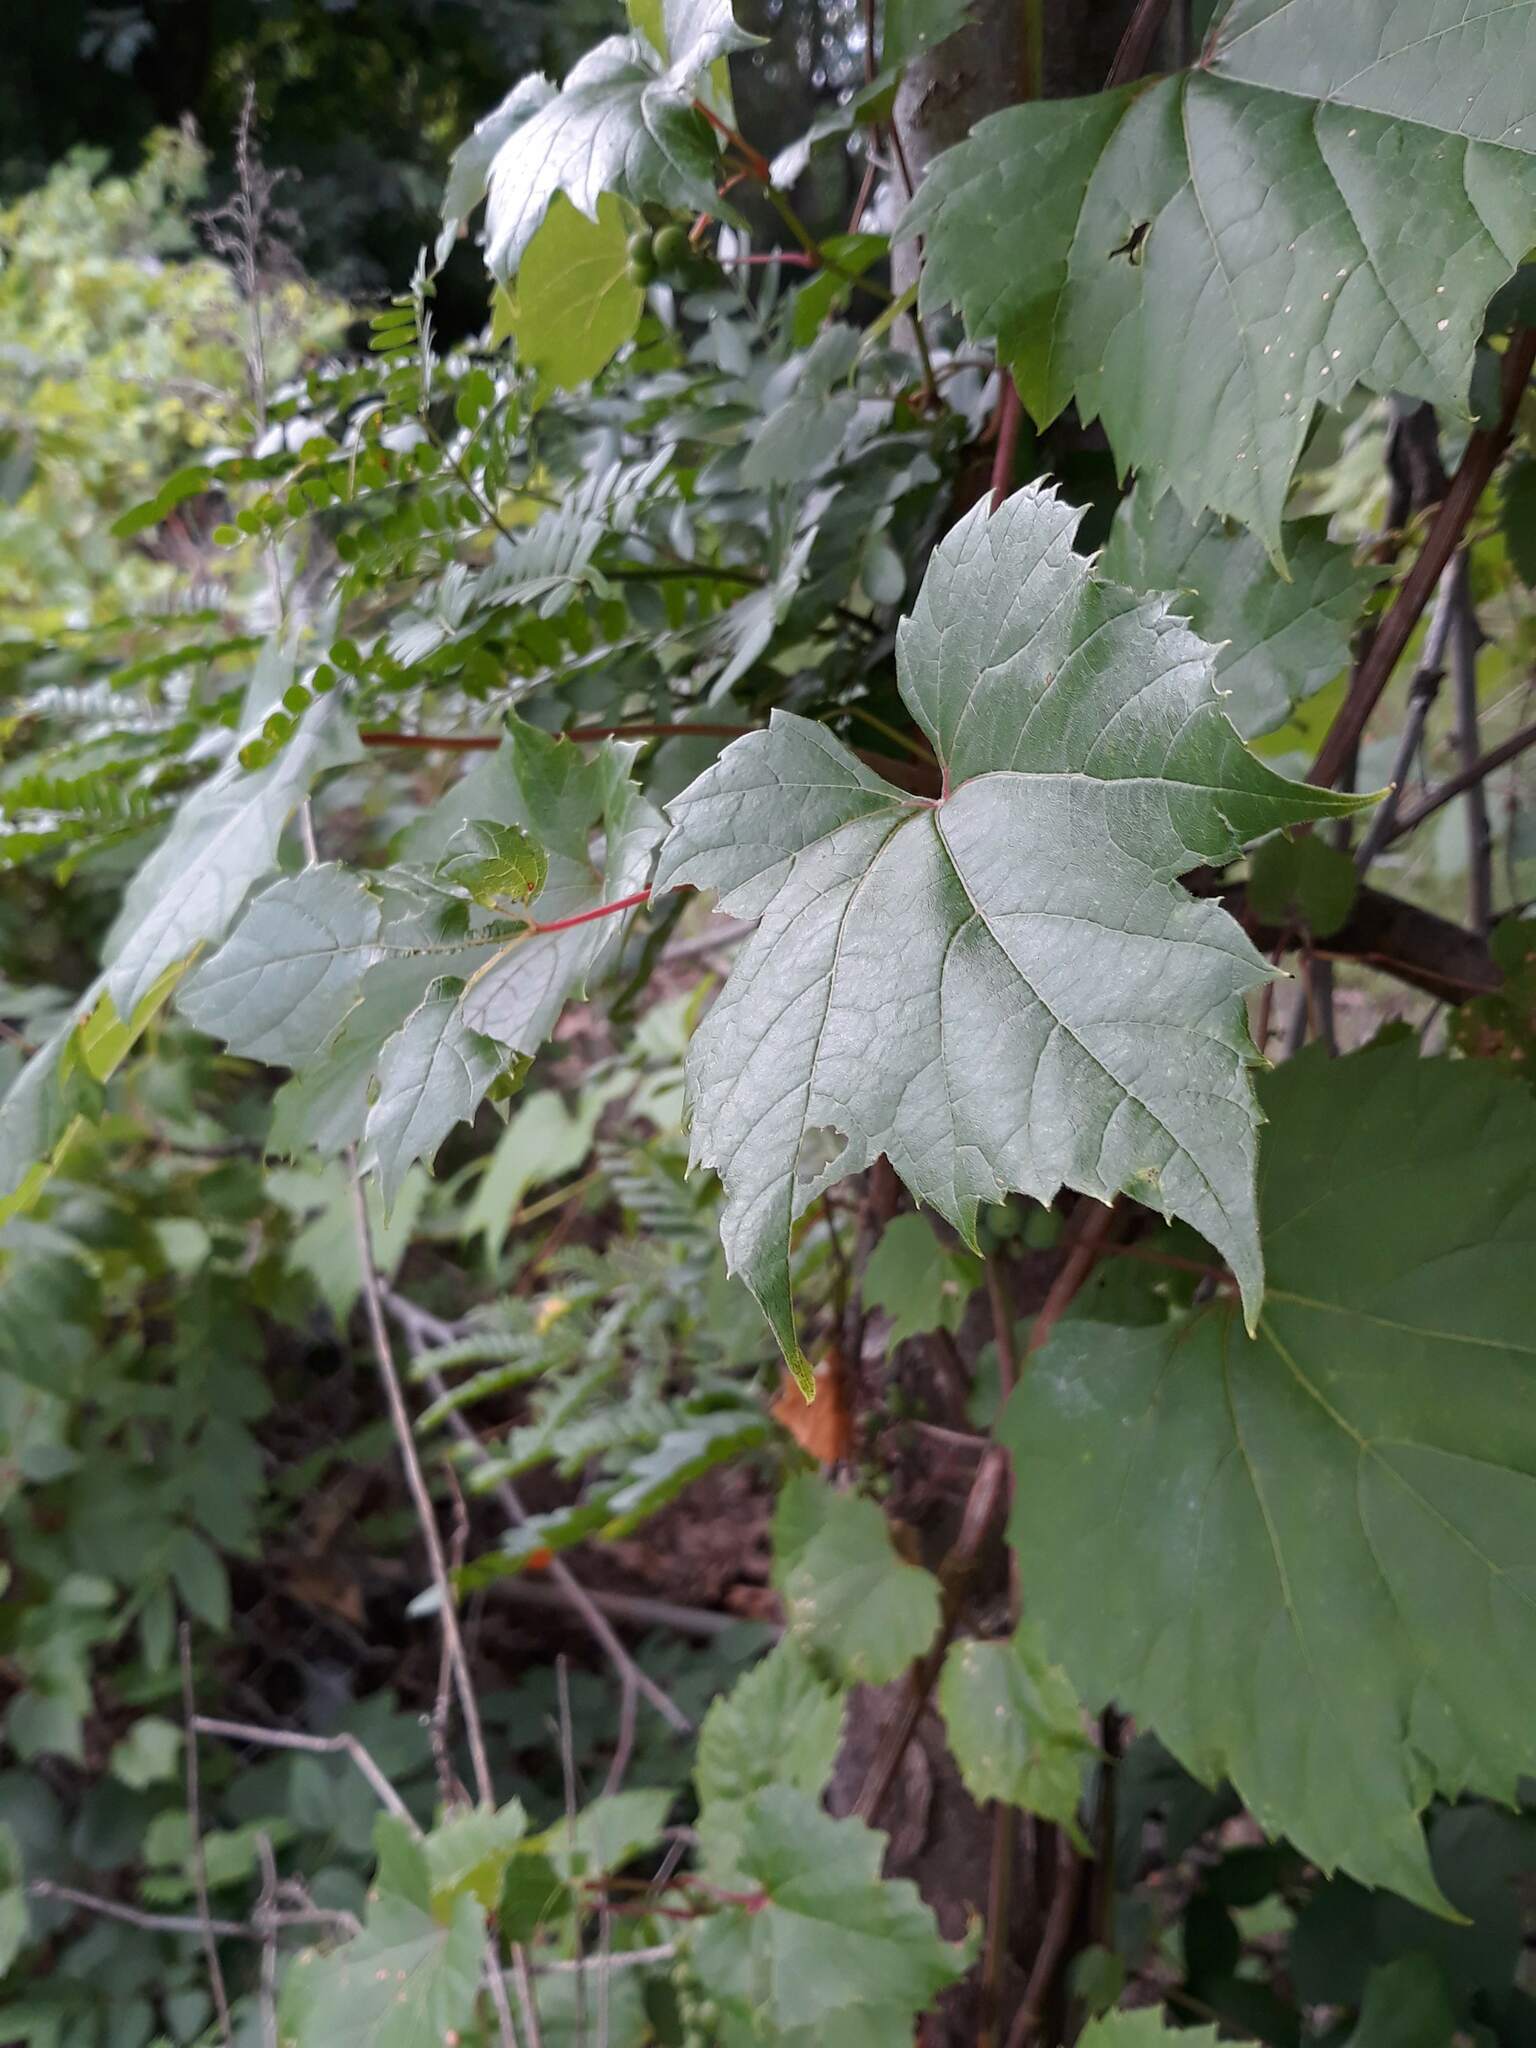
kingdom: Plantae
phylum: Tracheophyta
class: Magnoliopsida
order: Vitales
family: Vitaceae
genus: Vitis
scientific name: Vitis riparia
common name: Frost grape
